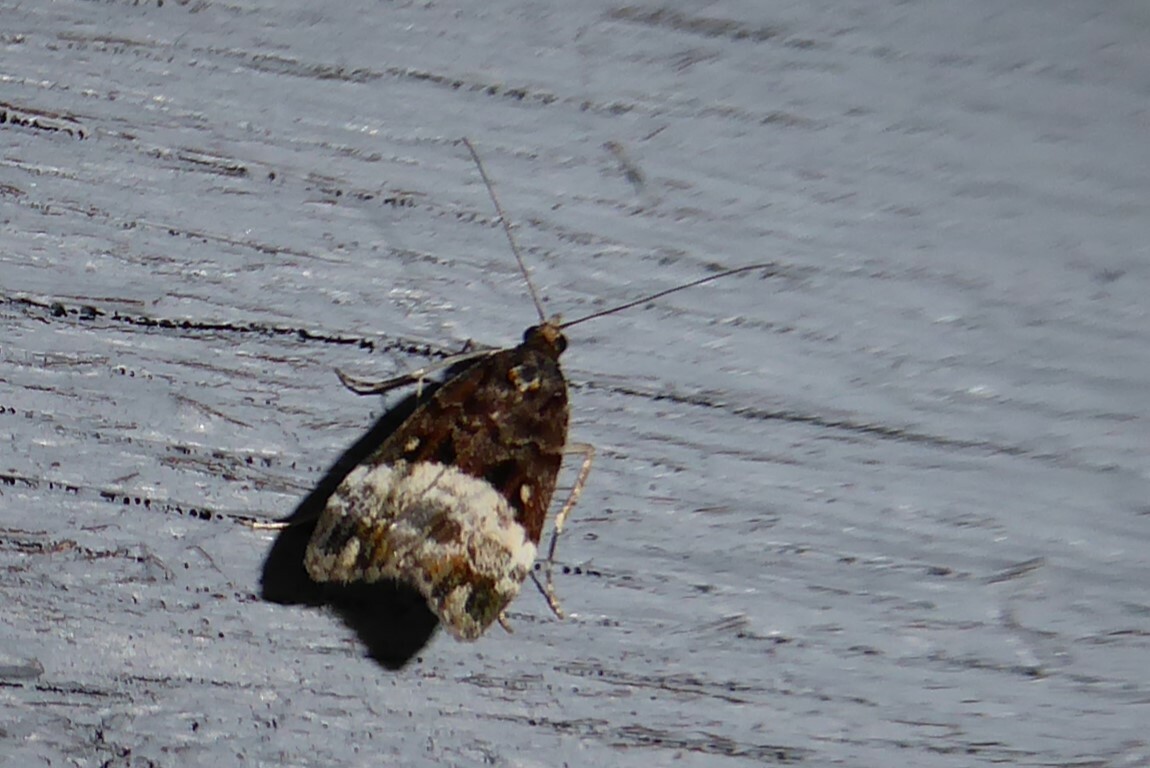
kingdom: Animalia
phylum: Arthropoda
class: Insecta
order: Lepidoptera
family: Crambidae
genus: Scoparia
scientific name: Scoparia minusculalis
